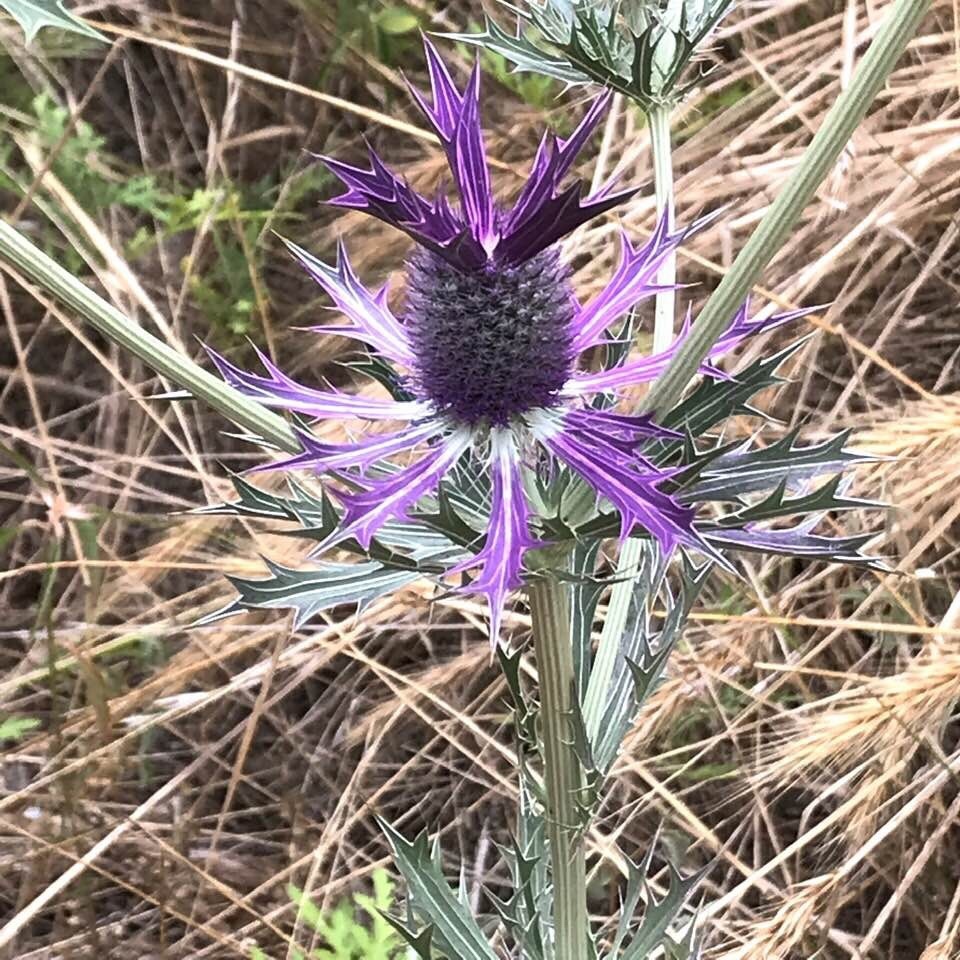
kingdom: Plantae
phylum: Tracheophyta
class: Magnoliopsida
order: Apiales
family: Apiaceae
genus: Eryngium
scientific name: Eryngium leavenworthii
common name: Leavenworth's eryngo
